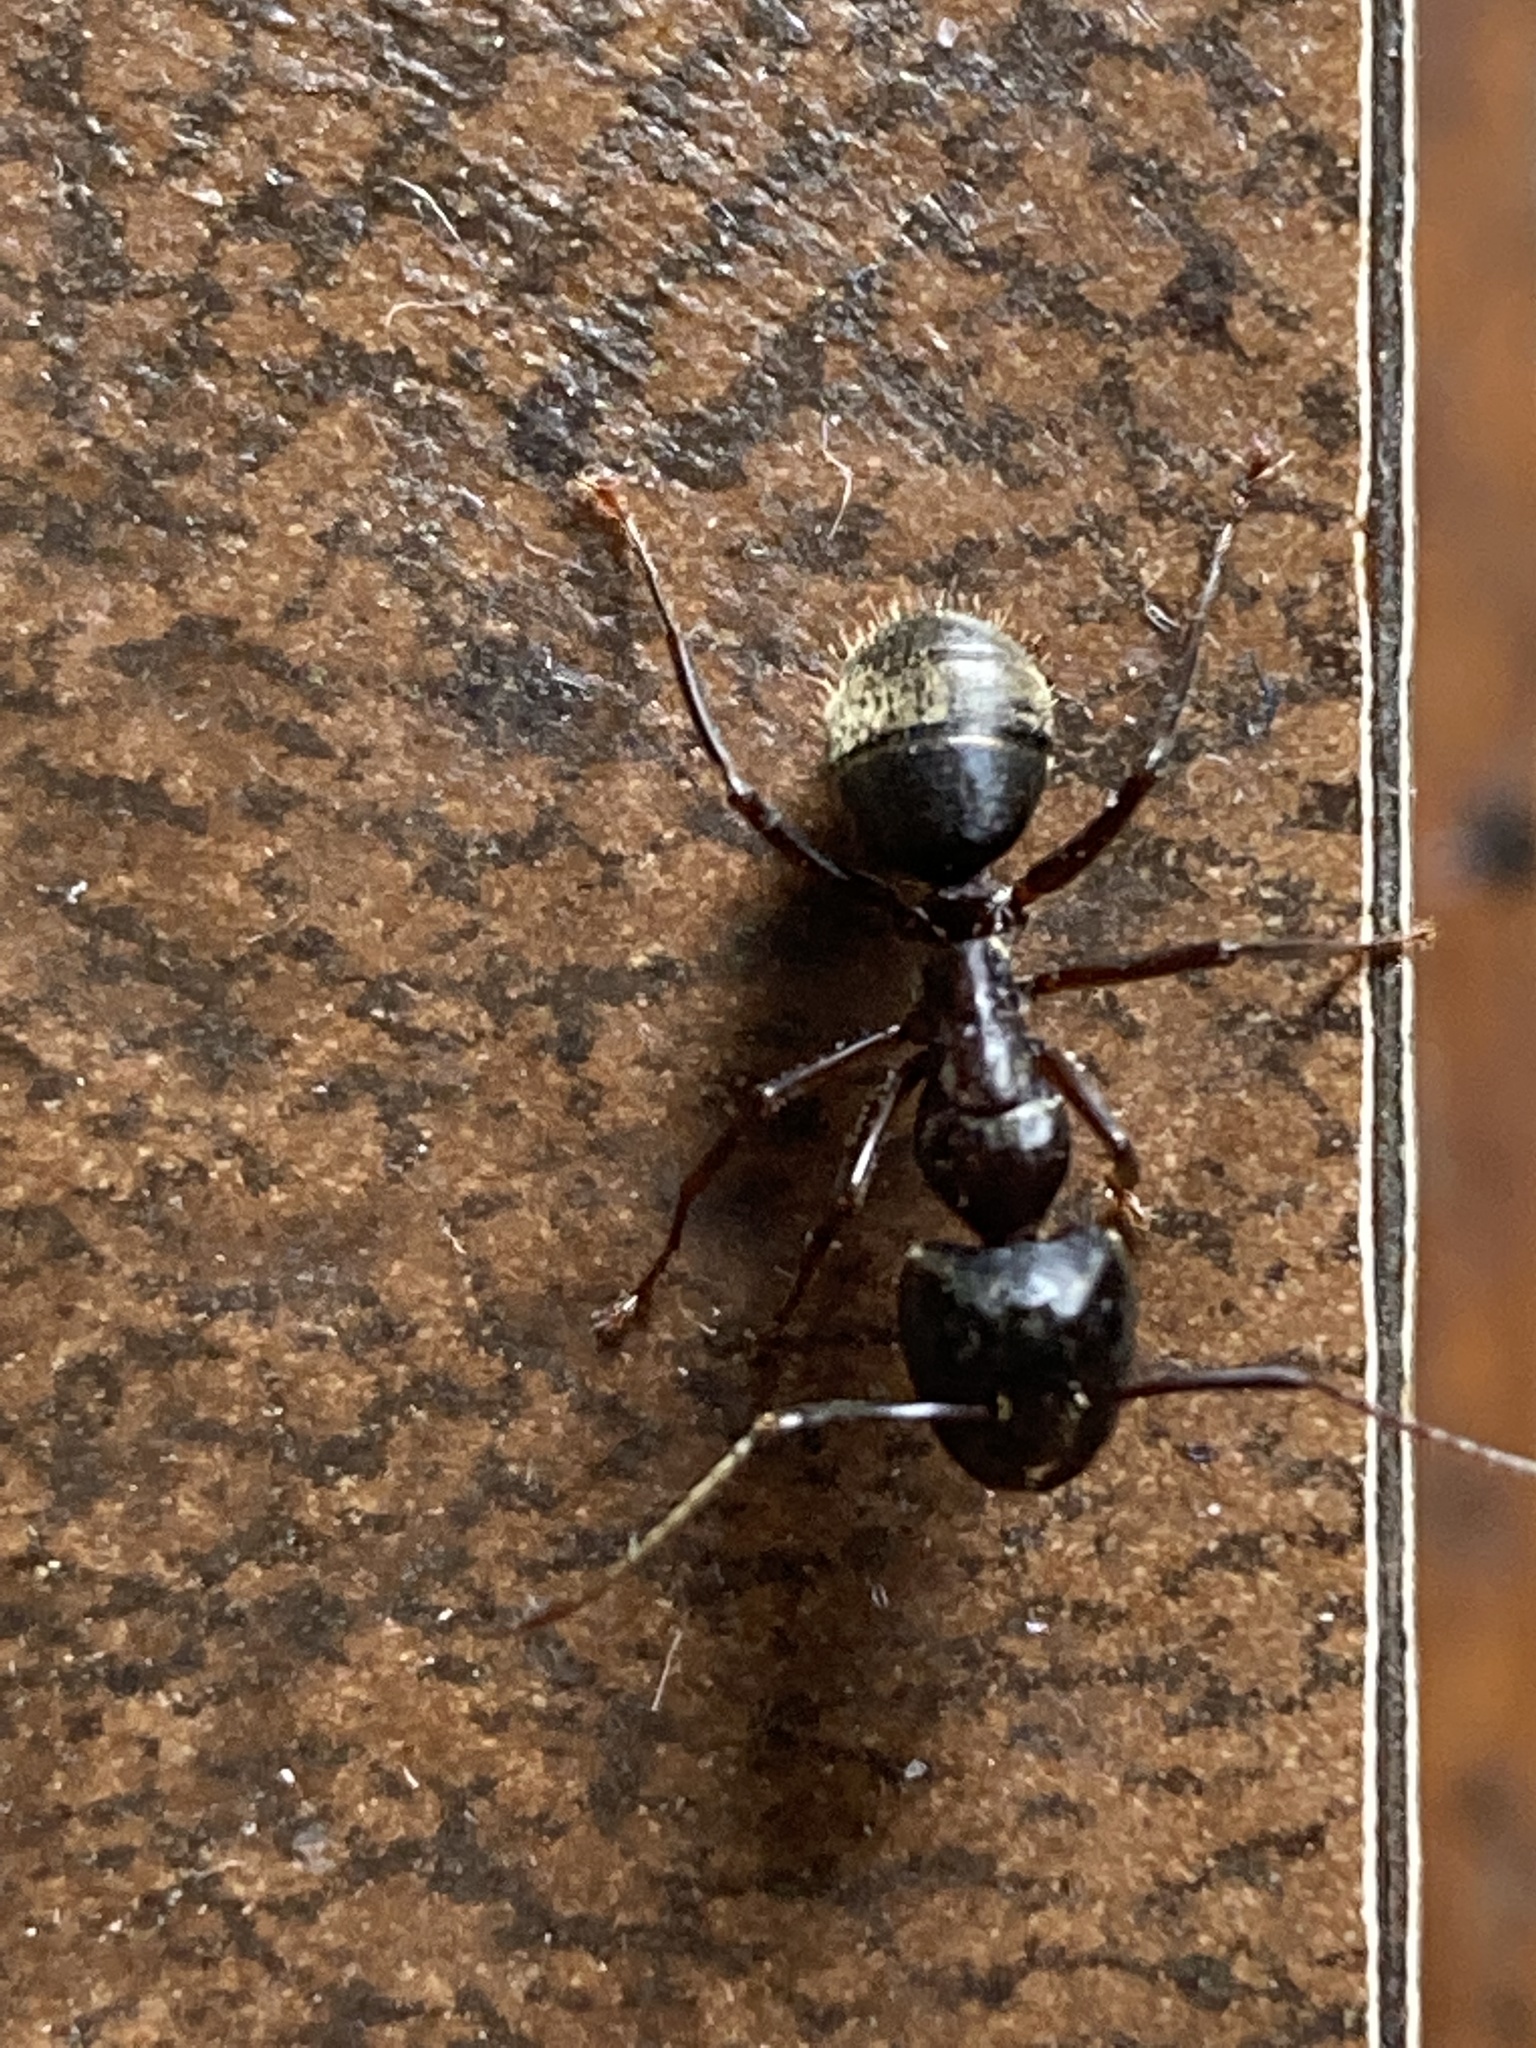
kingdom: Animalia
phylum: Arthropoda
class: Insecta
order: Hymenoptera
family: Formicidae
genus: Camponotus
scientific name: Camponotus pennsylvanicus
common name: Black carpenter ant
